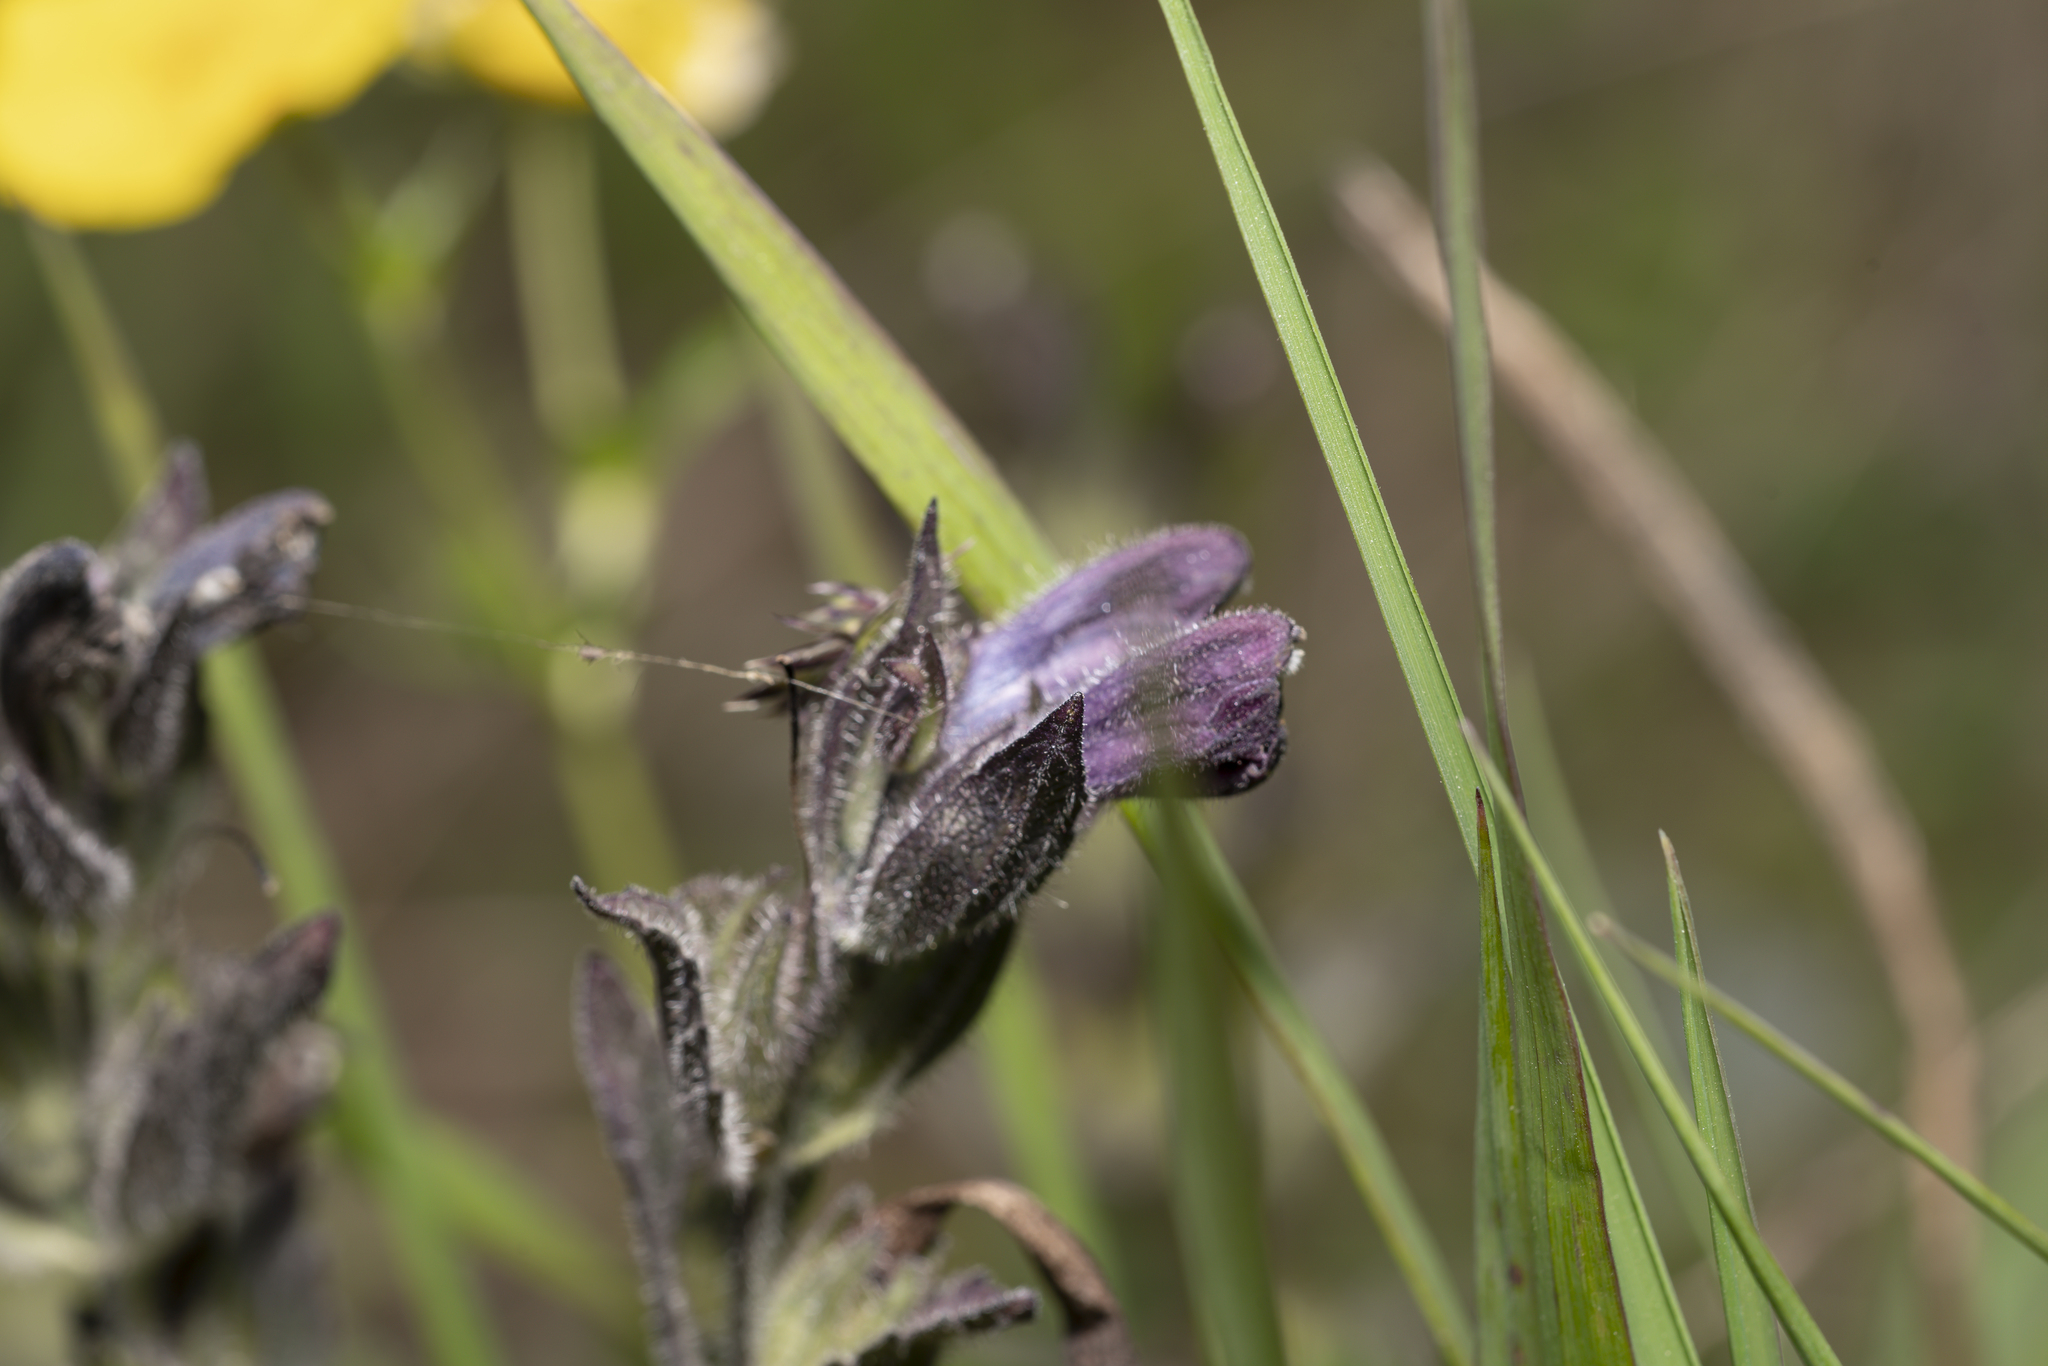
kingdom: Plantae
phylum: Tracheophyta
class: Magnoliopsida
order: Lamiales
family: Orobanchaceae
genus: Bartsia
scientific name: Bartsia alpina
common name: Alpine bartsia
